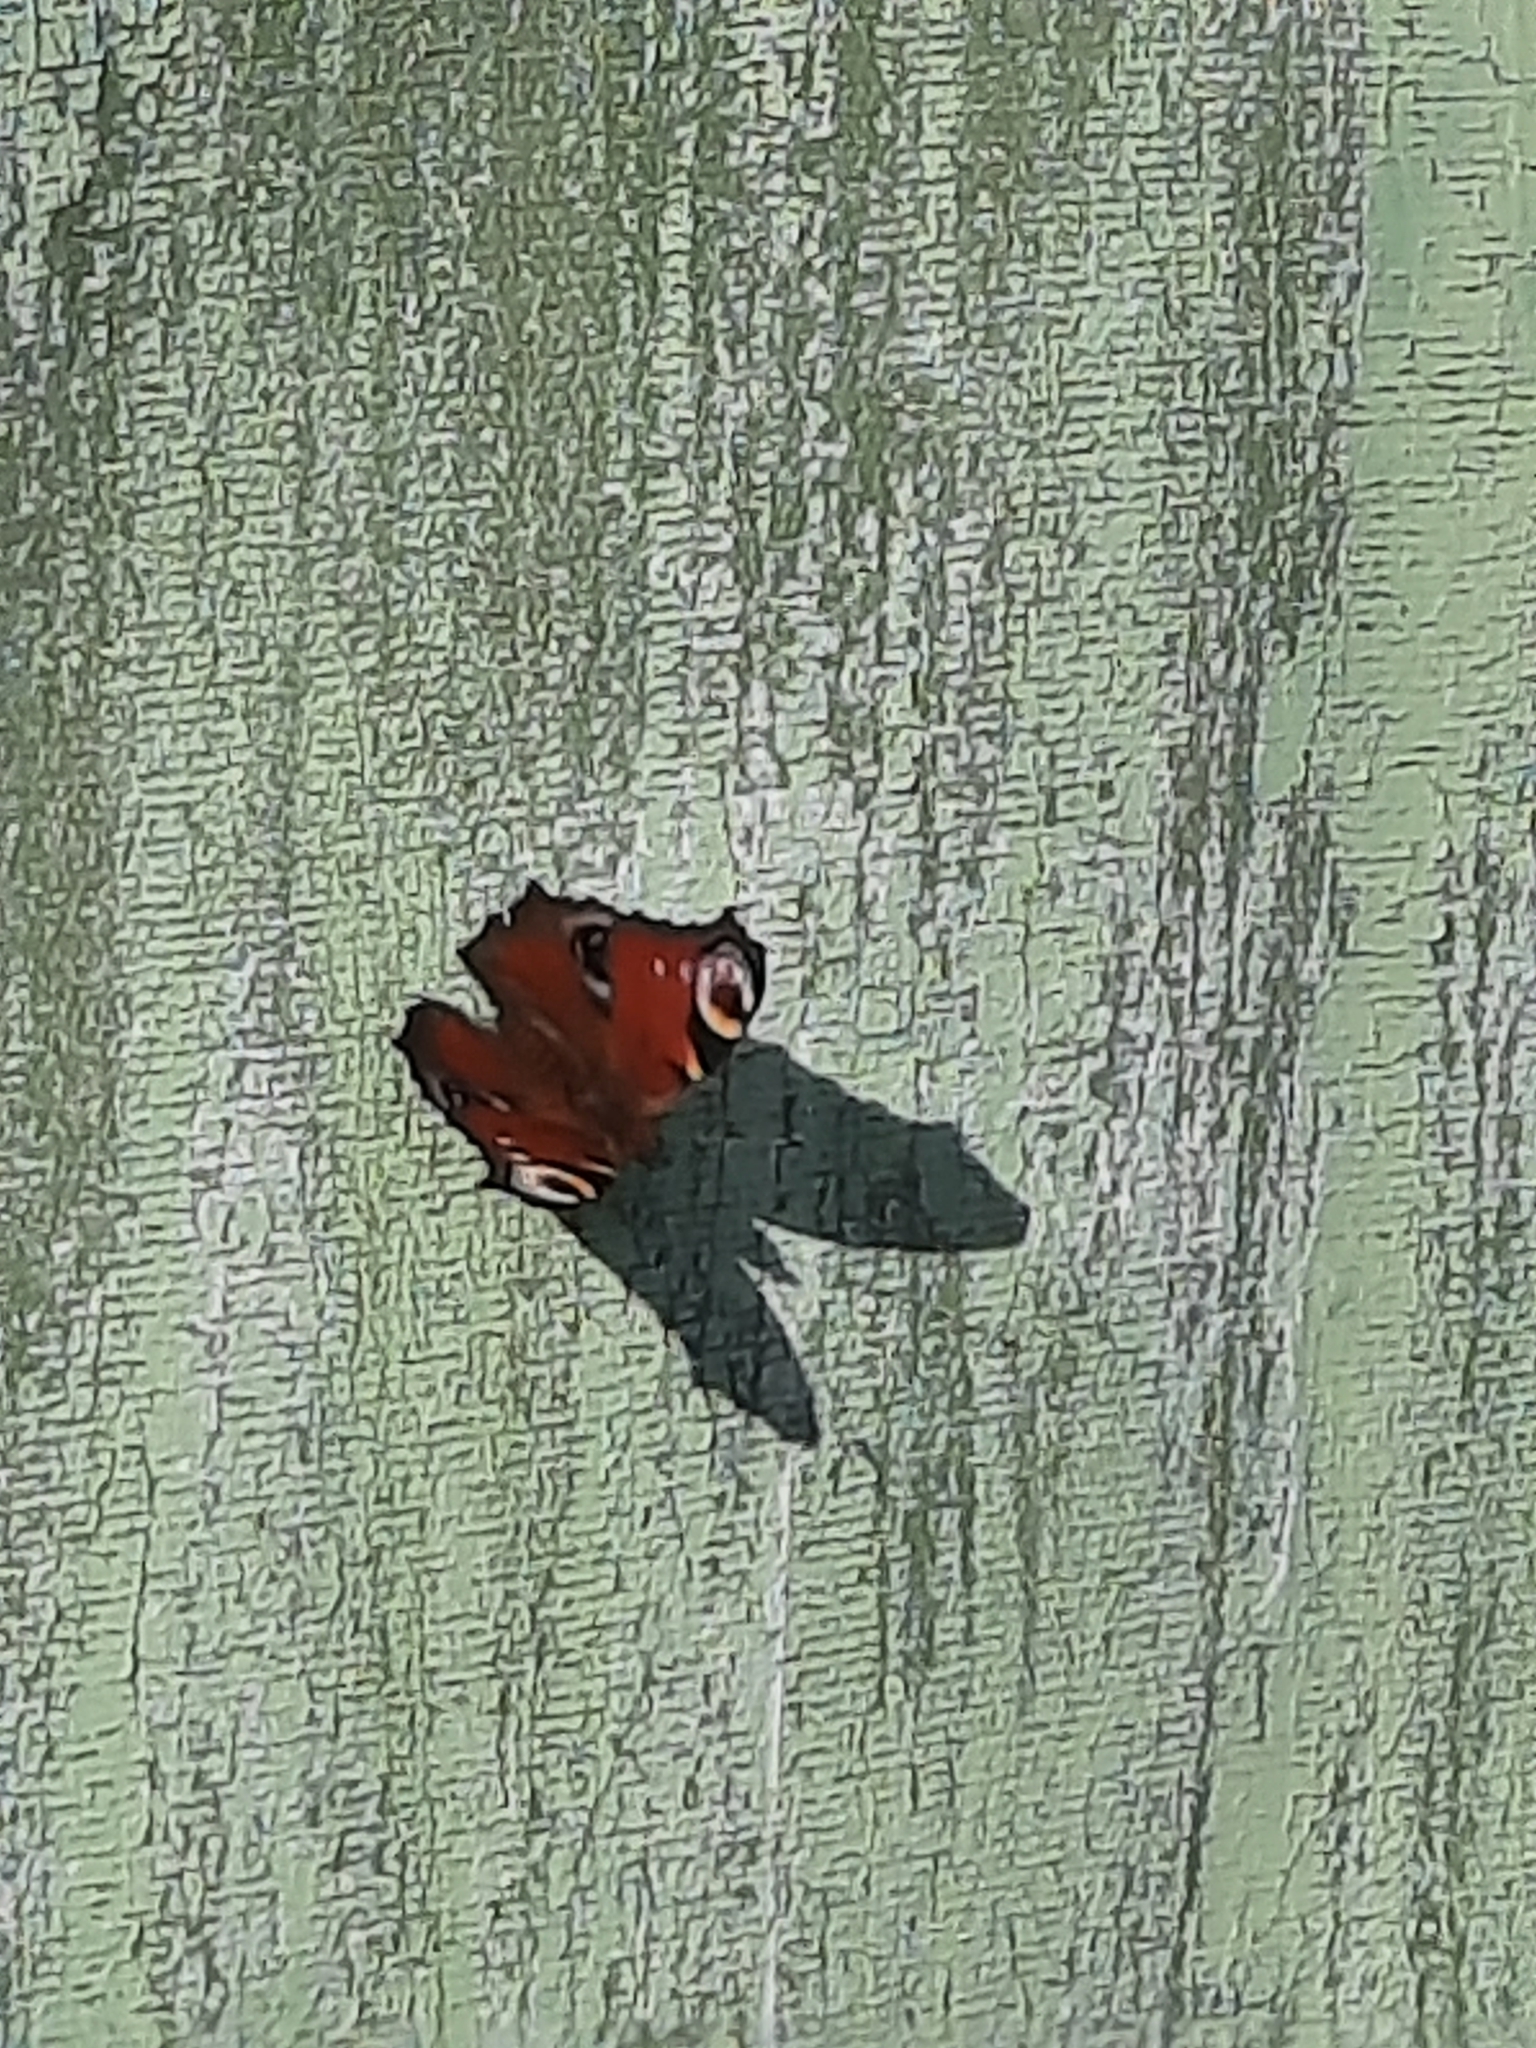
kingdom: Animalia
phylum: Arthropoda
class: Insecta
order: Lepidoptera
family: Nymphalidae
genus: Aglais
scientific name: Aglais io
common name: Peacock
